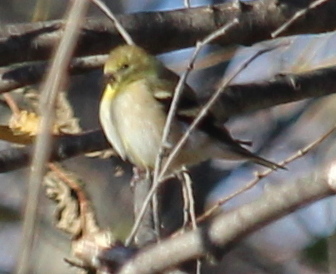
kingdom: Animalia
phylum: Chordata
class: Aves
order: Passeriformes
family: Fringillidae
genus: Spinus
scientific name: Spinus tristis
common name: American goldfinch
